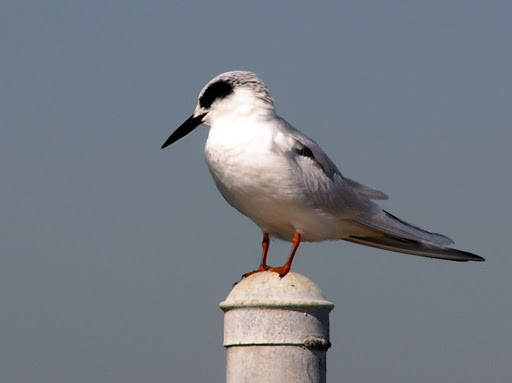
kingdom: Animalia
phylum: Chordata
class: Aves
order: Charadriiformes
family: Laridae
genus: Sterna
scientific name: Sterna forsteri
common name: Forster's tern
